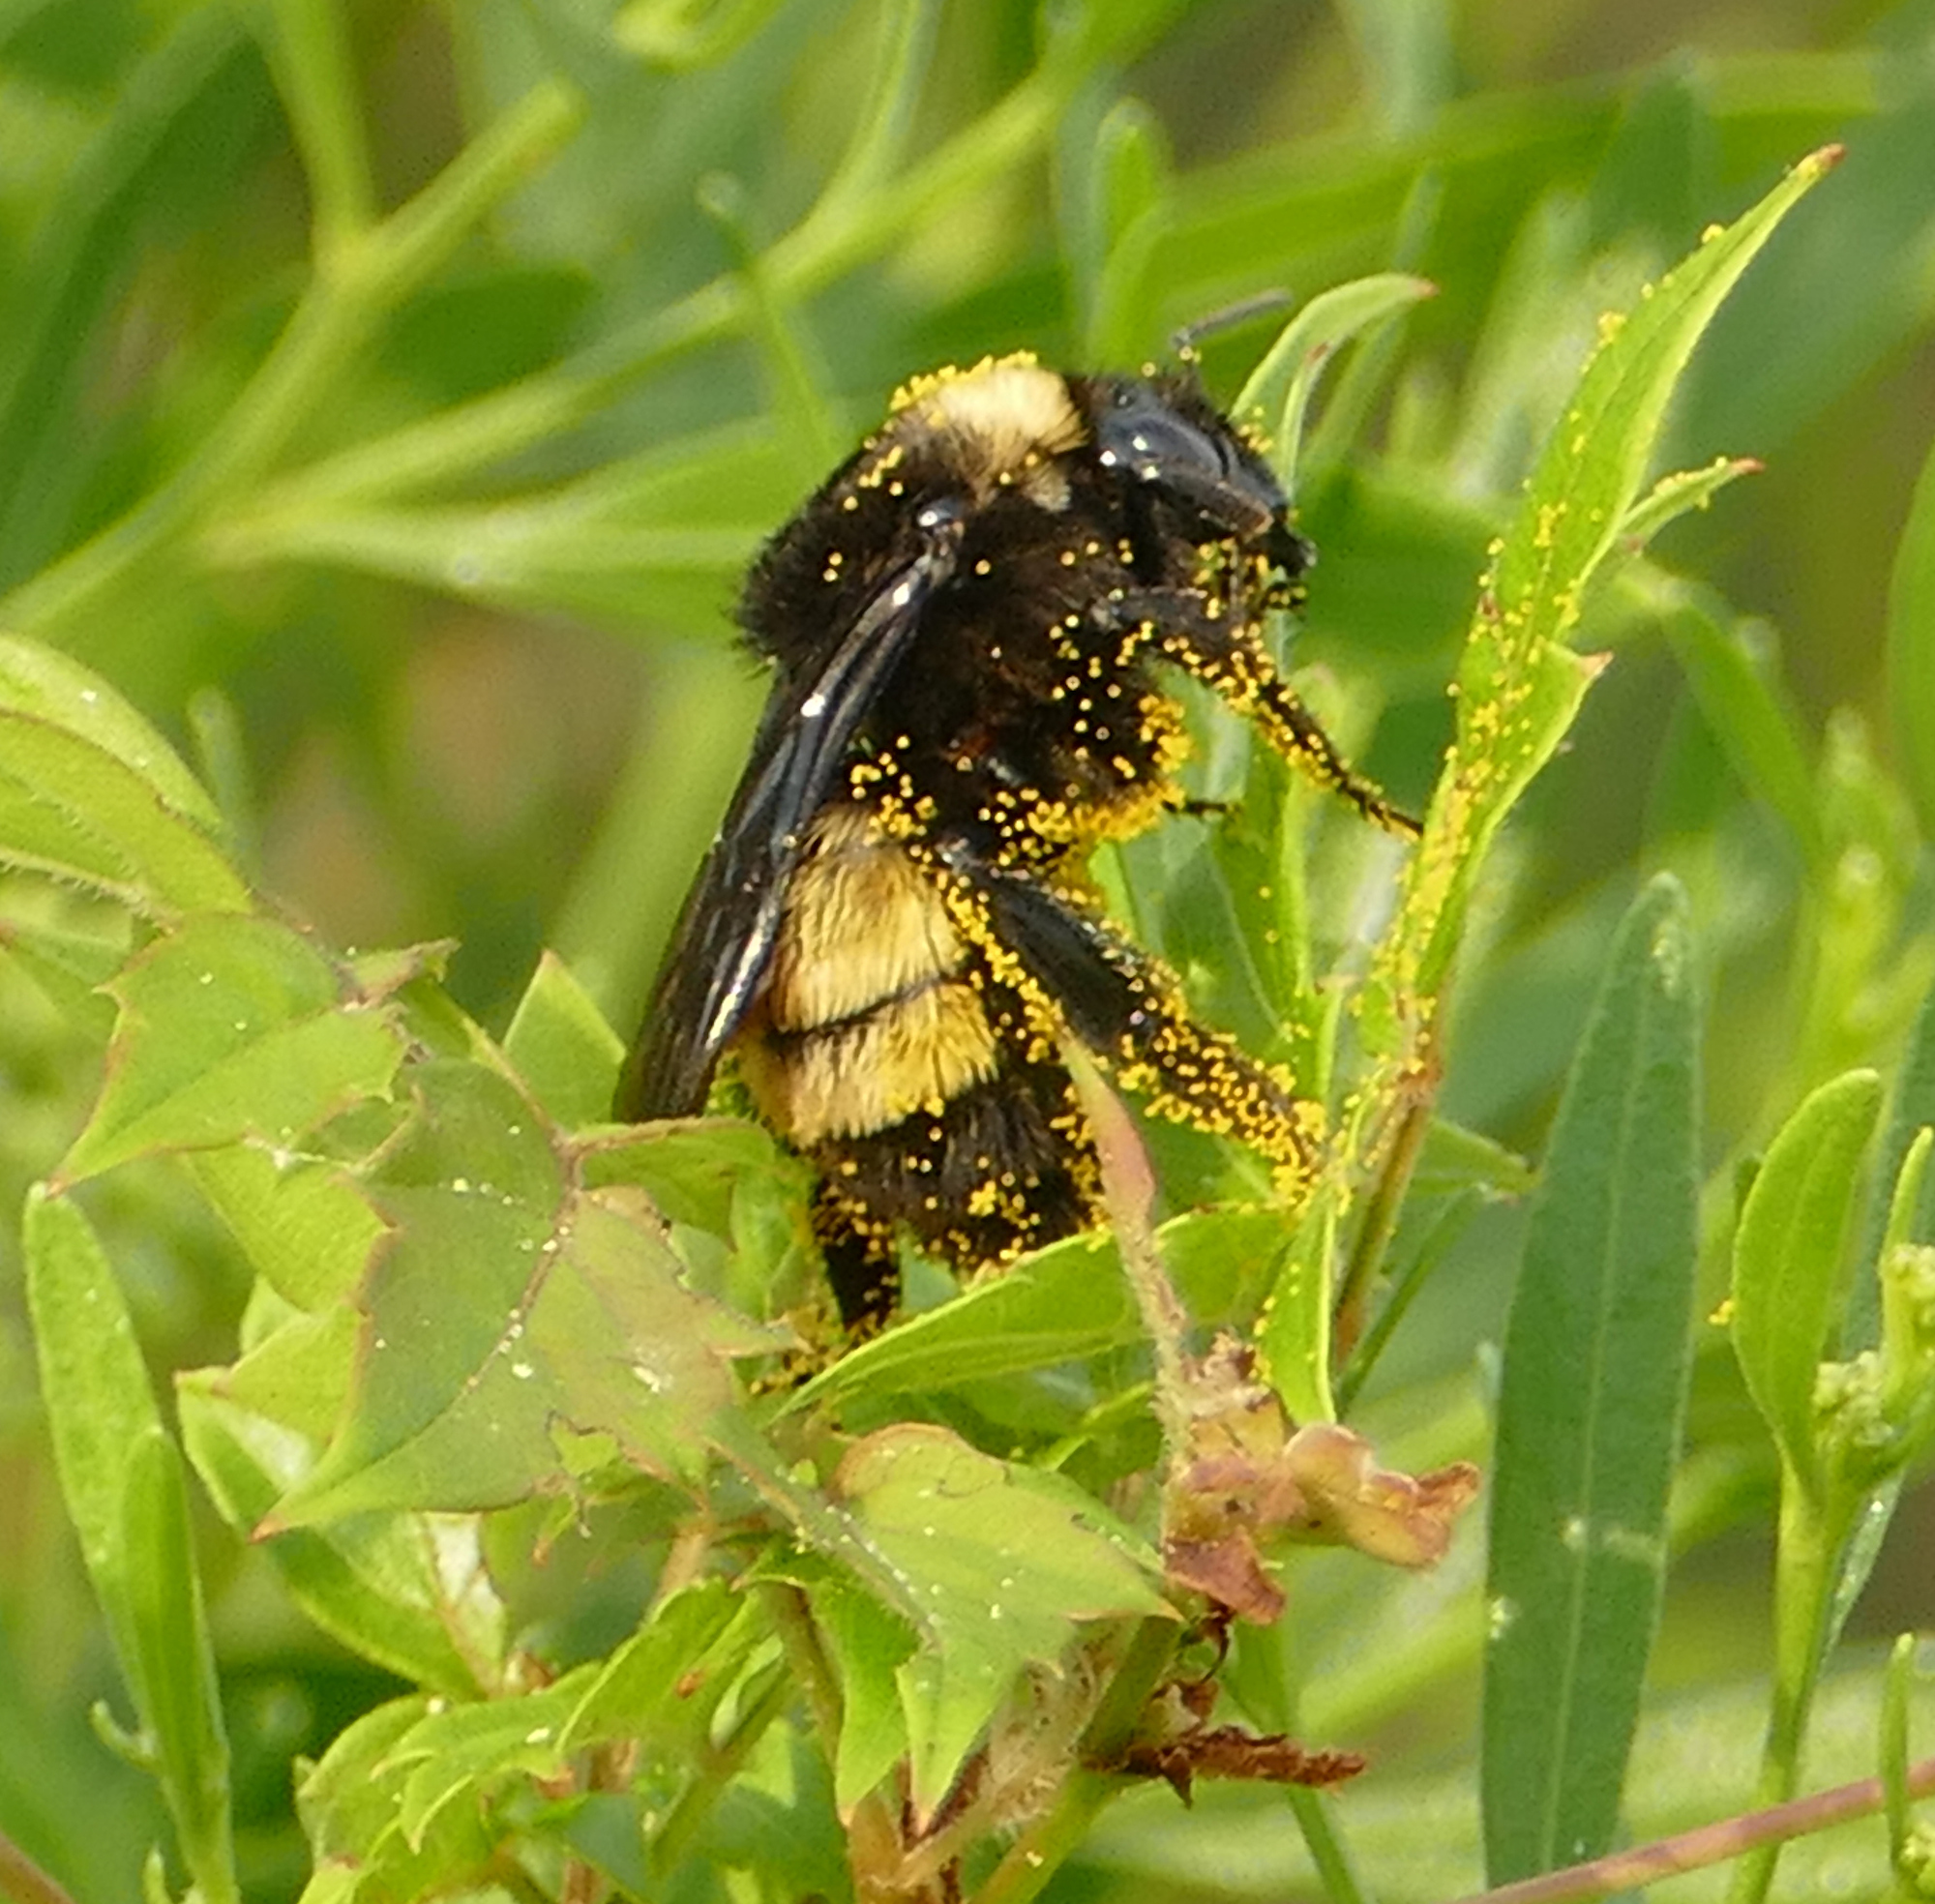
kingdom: Animalia
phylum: Arthropoda
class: Insecta
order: Hymenoptera
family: Apidae
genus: Bombus
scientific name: Bombus pensylvanicus
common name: Bumble bee
